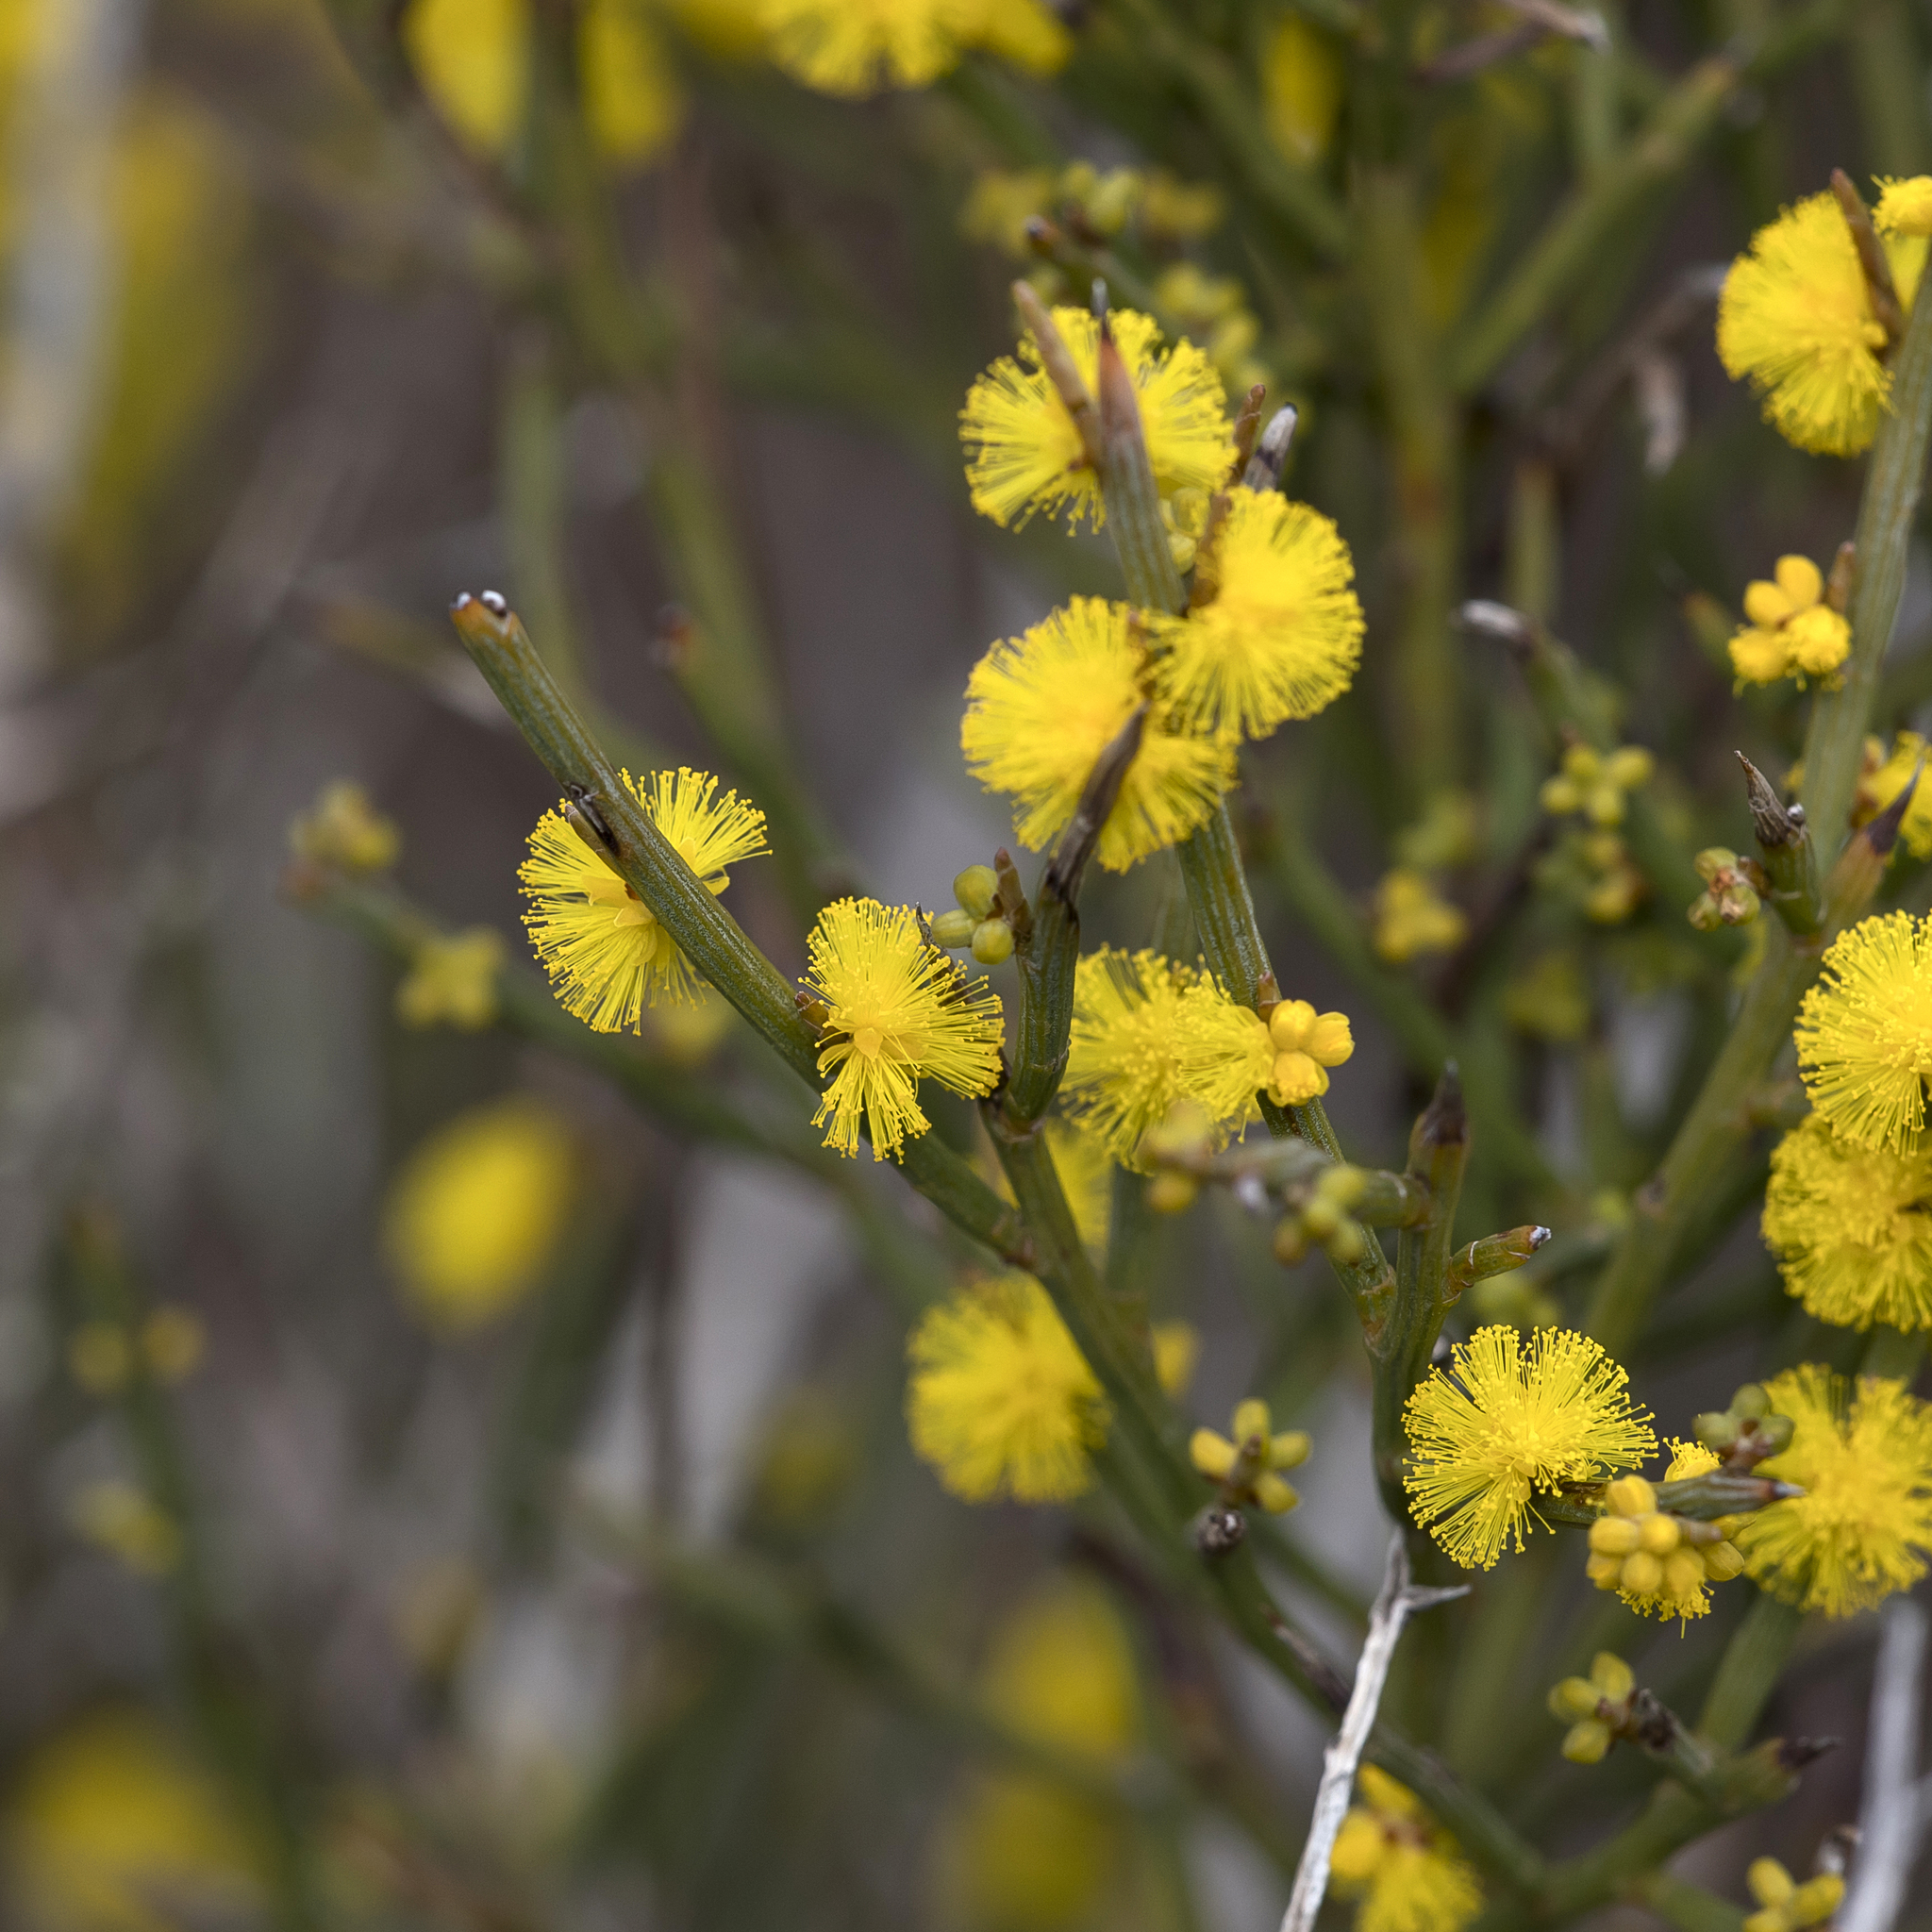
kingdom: Plantae
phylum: Tracheophyta
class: Magnoliopsida
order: Fabales
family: Fabaceae
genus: Acacia
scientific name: Acacia spinescens
